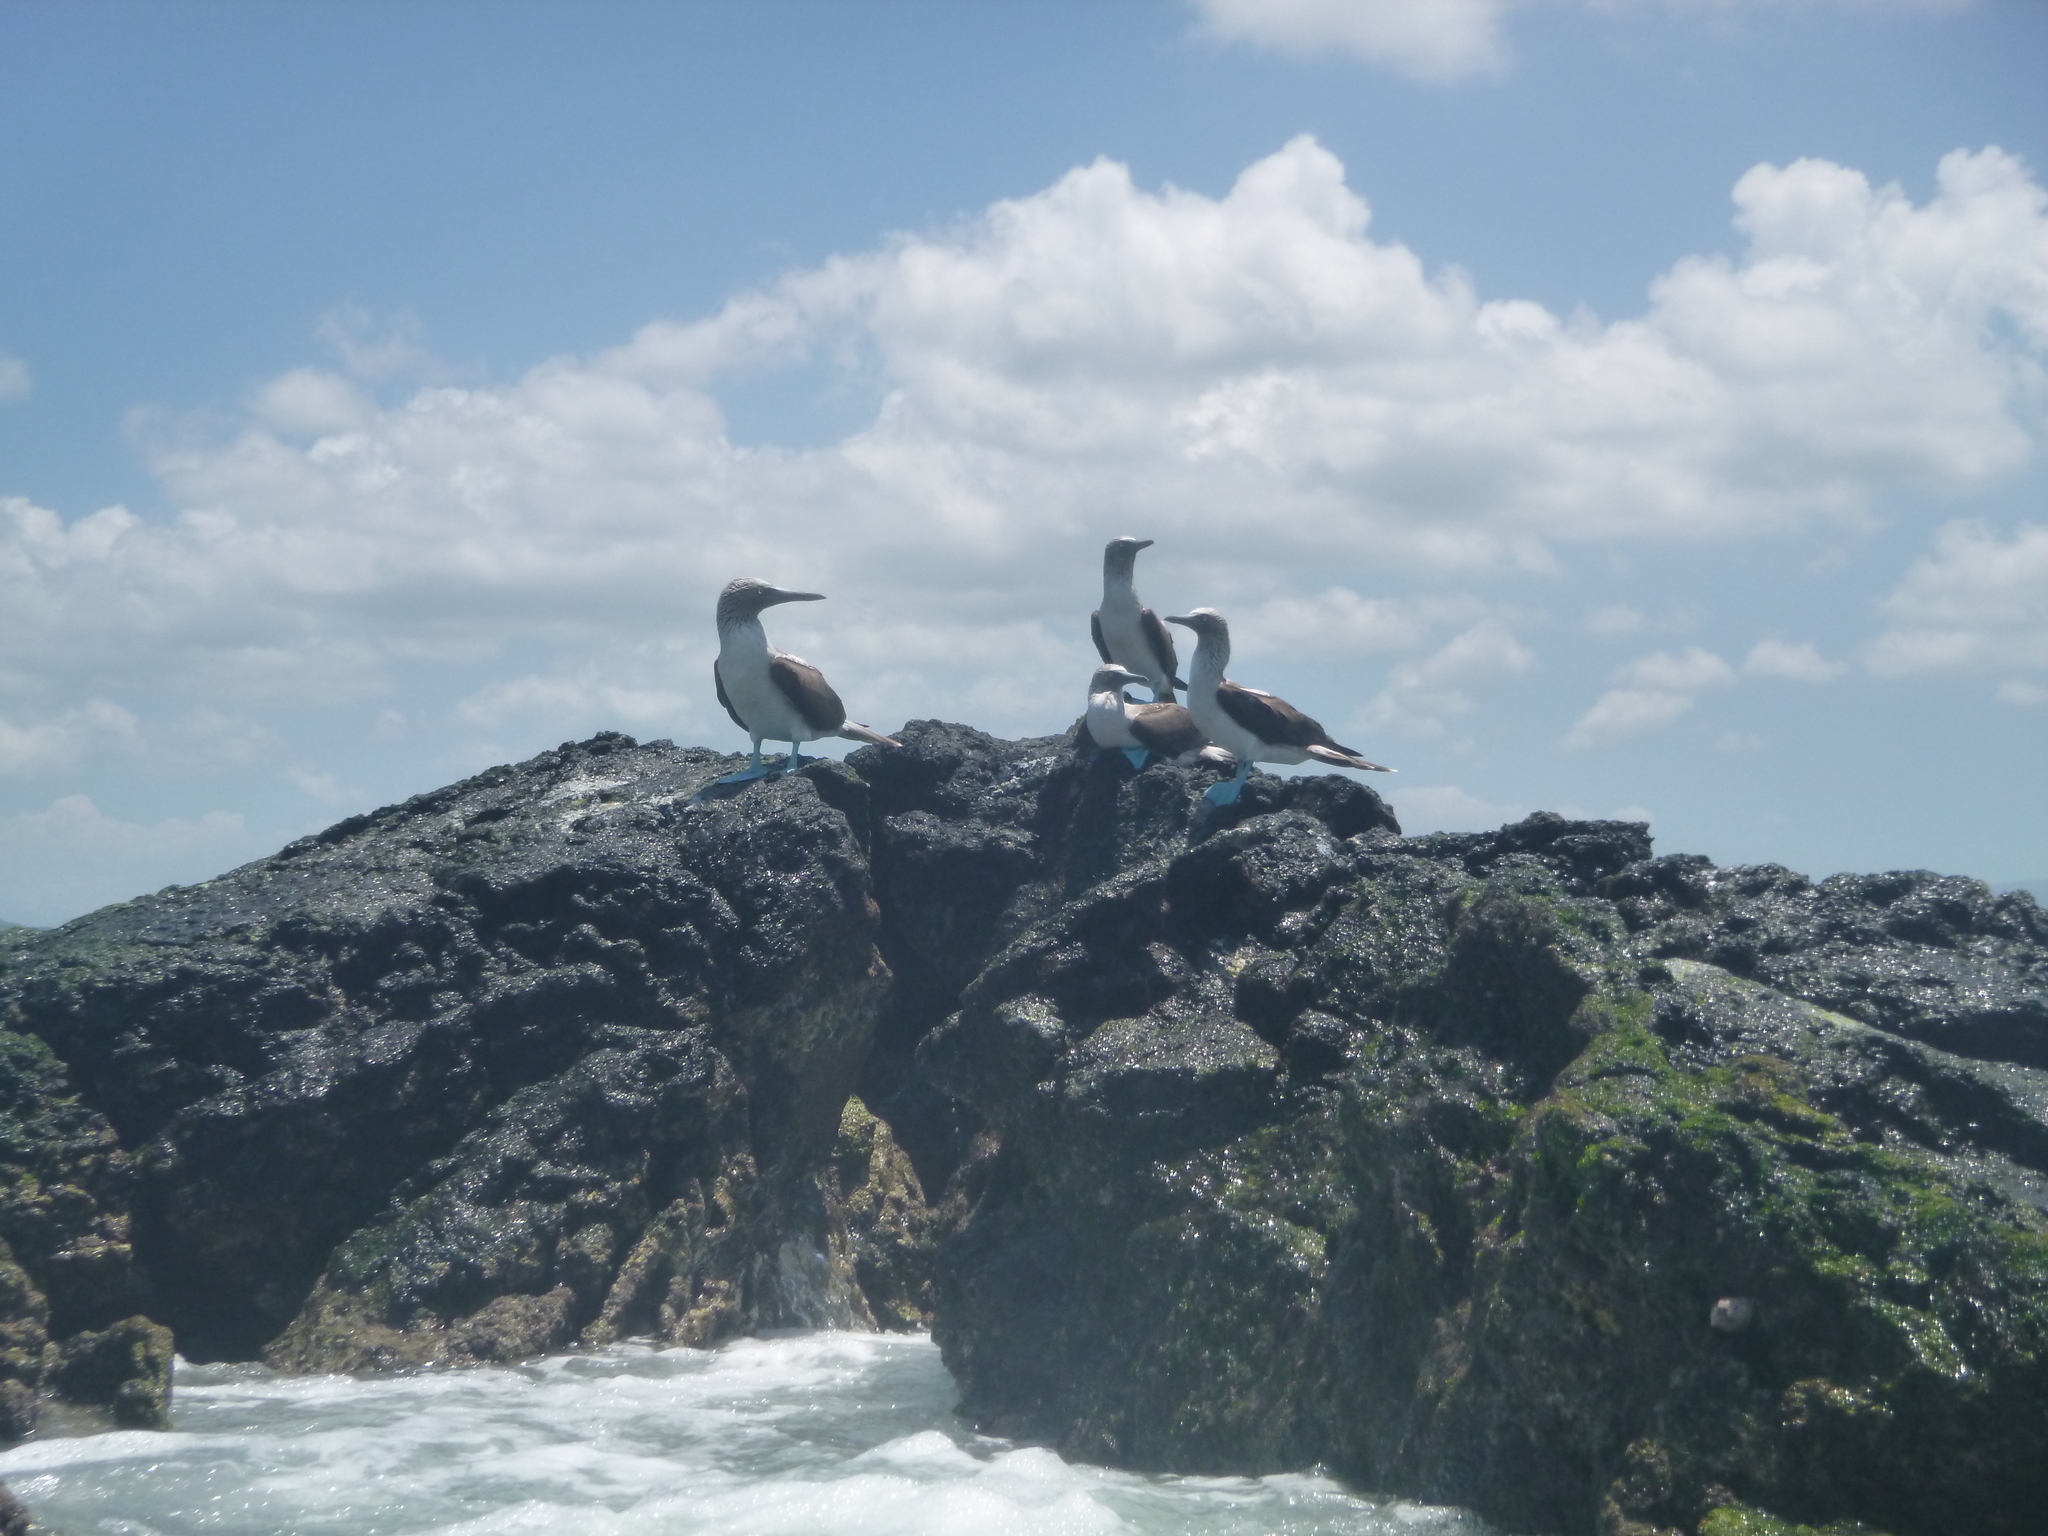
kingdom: Animalia
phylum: Chordata
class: Aves
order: Suliformes
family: Sulidae
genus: Sula
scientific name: Sula nebouxii
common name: Blue-footed booby
